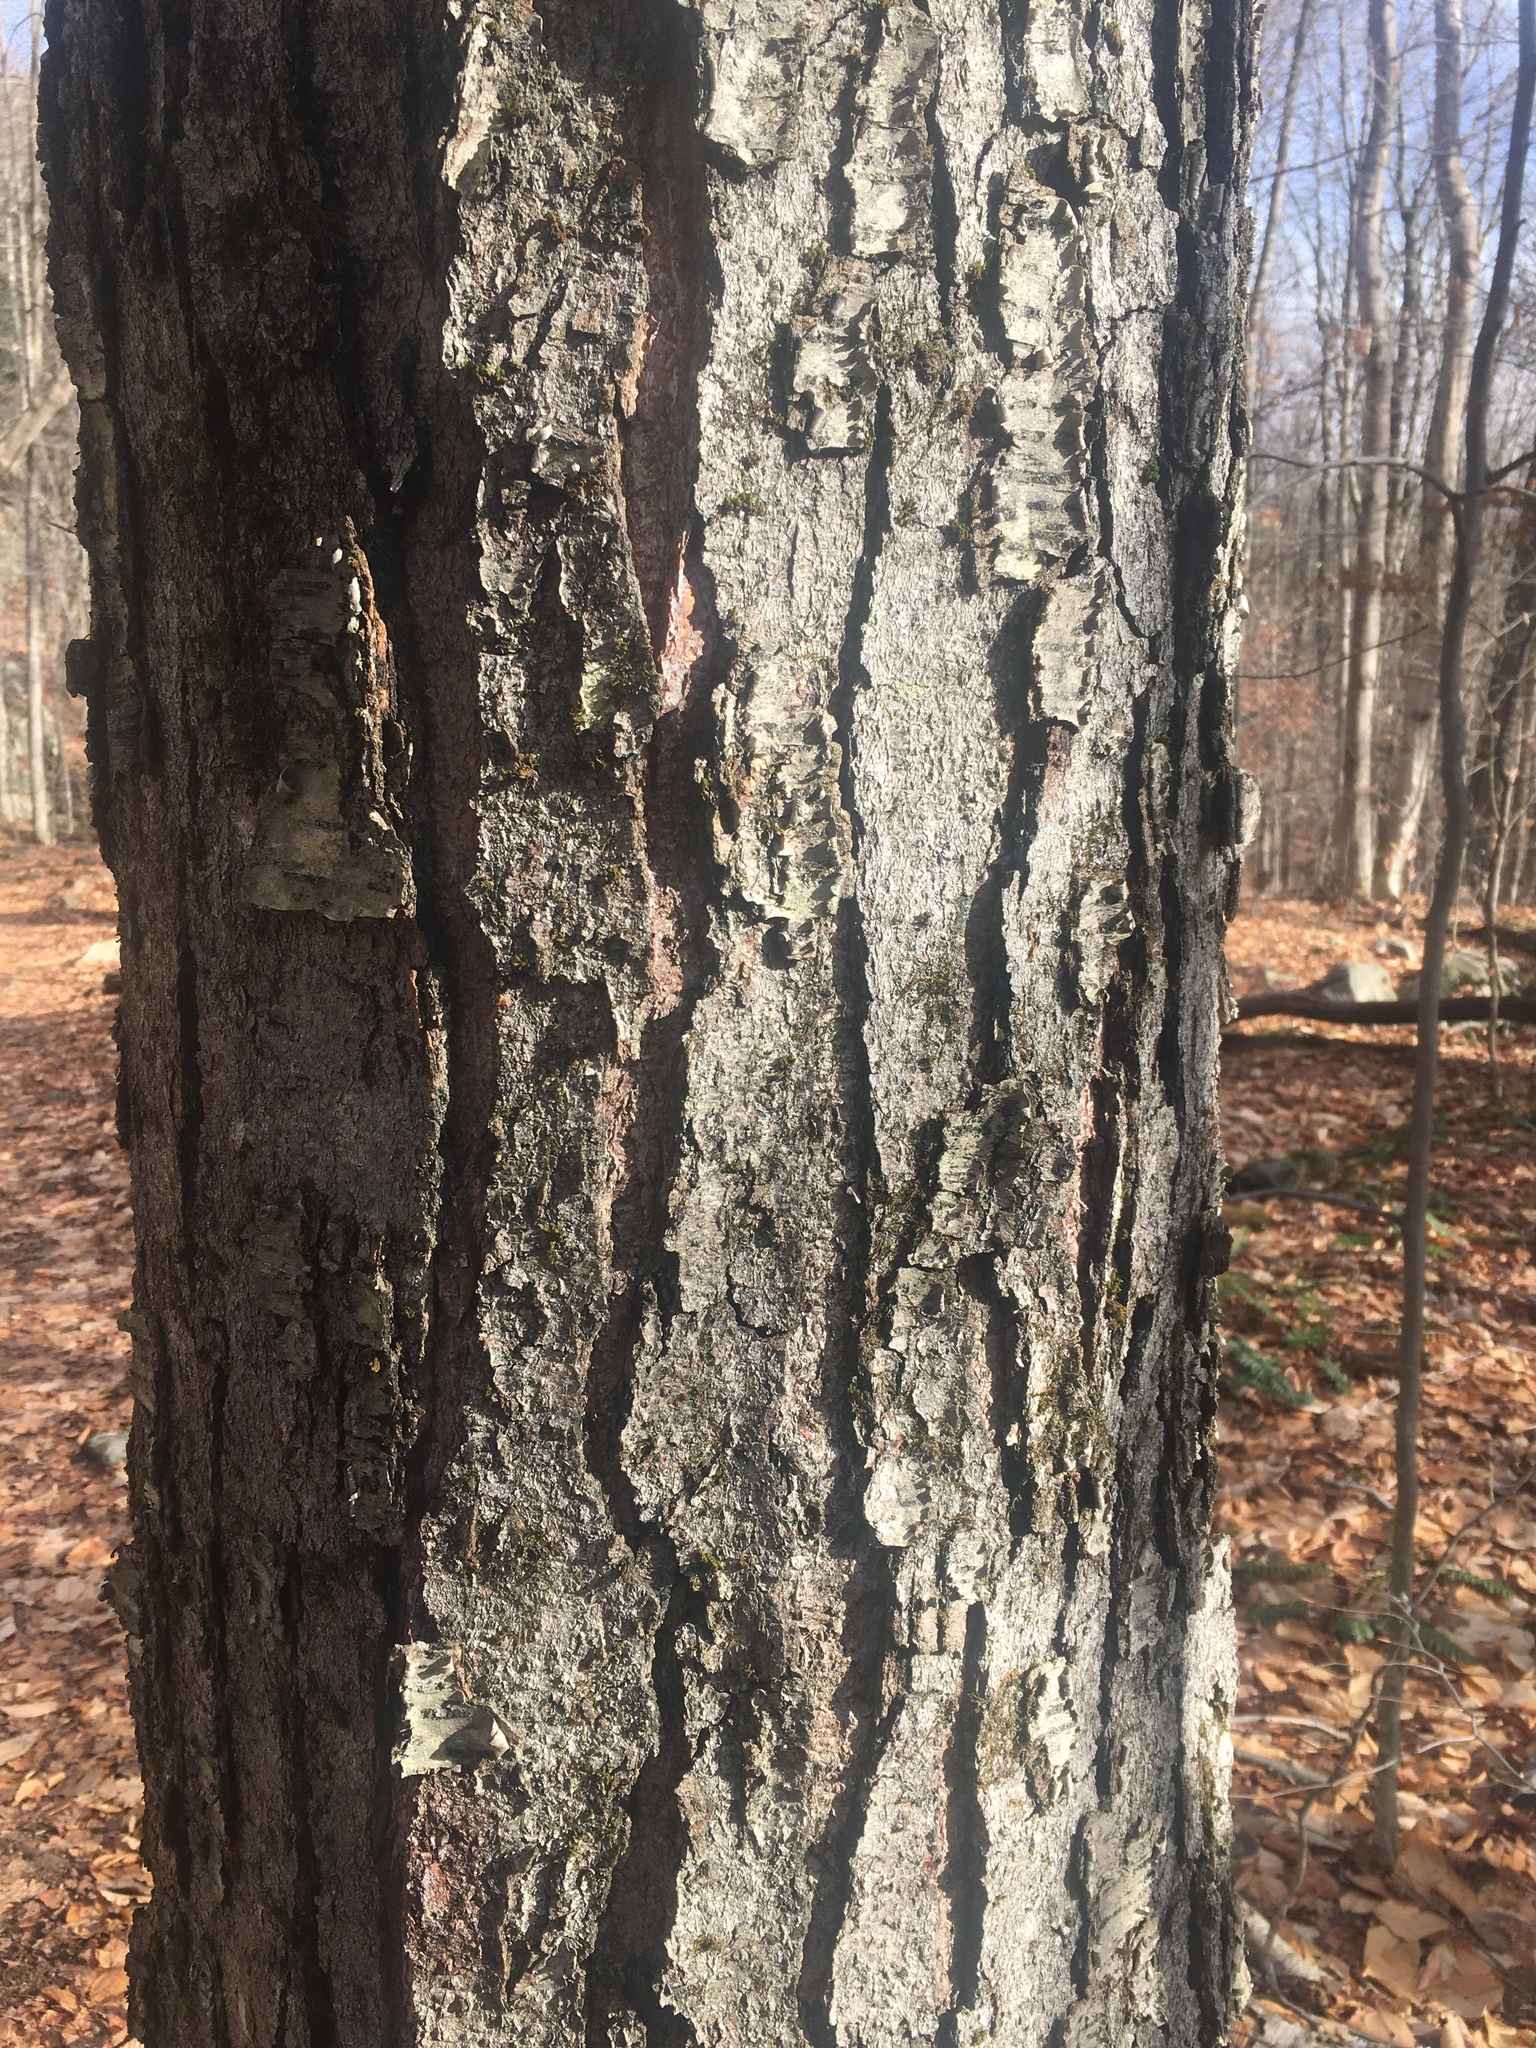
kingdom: Plantae
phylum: Tracheophyta
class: Magnoliopsida
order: Rosales
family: Rosaceae
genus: Prunus
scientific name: Prunus serotina
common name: Black cherry
